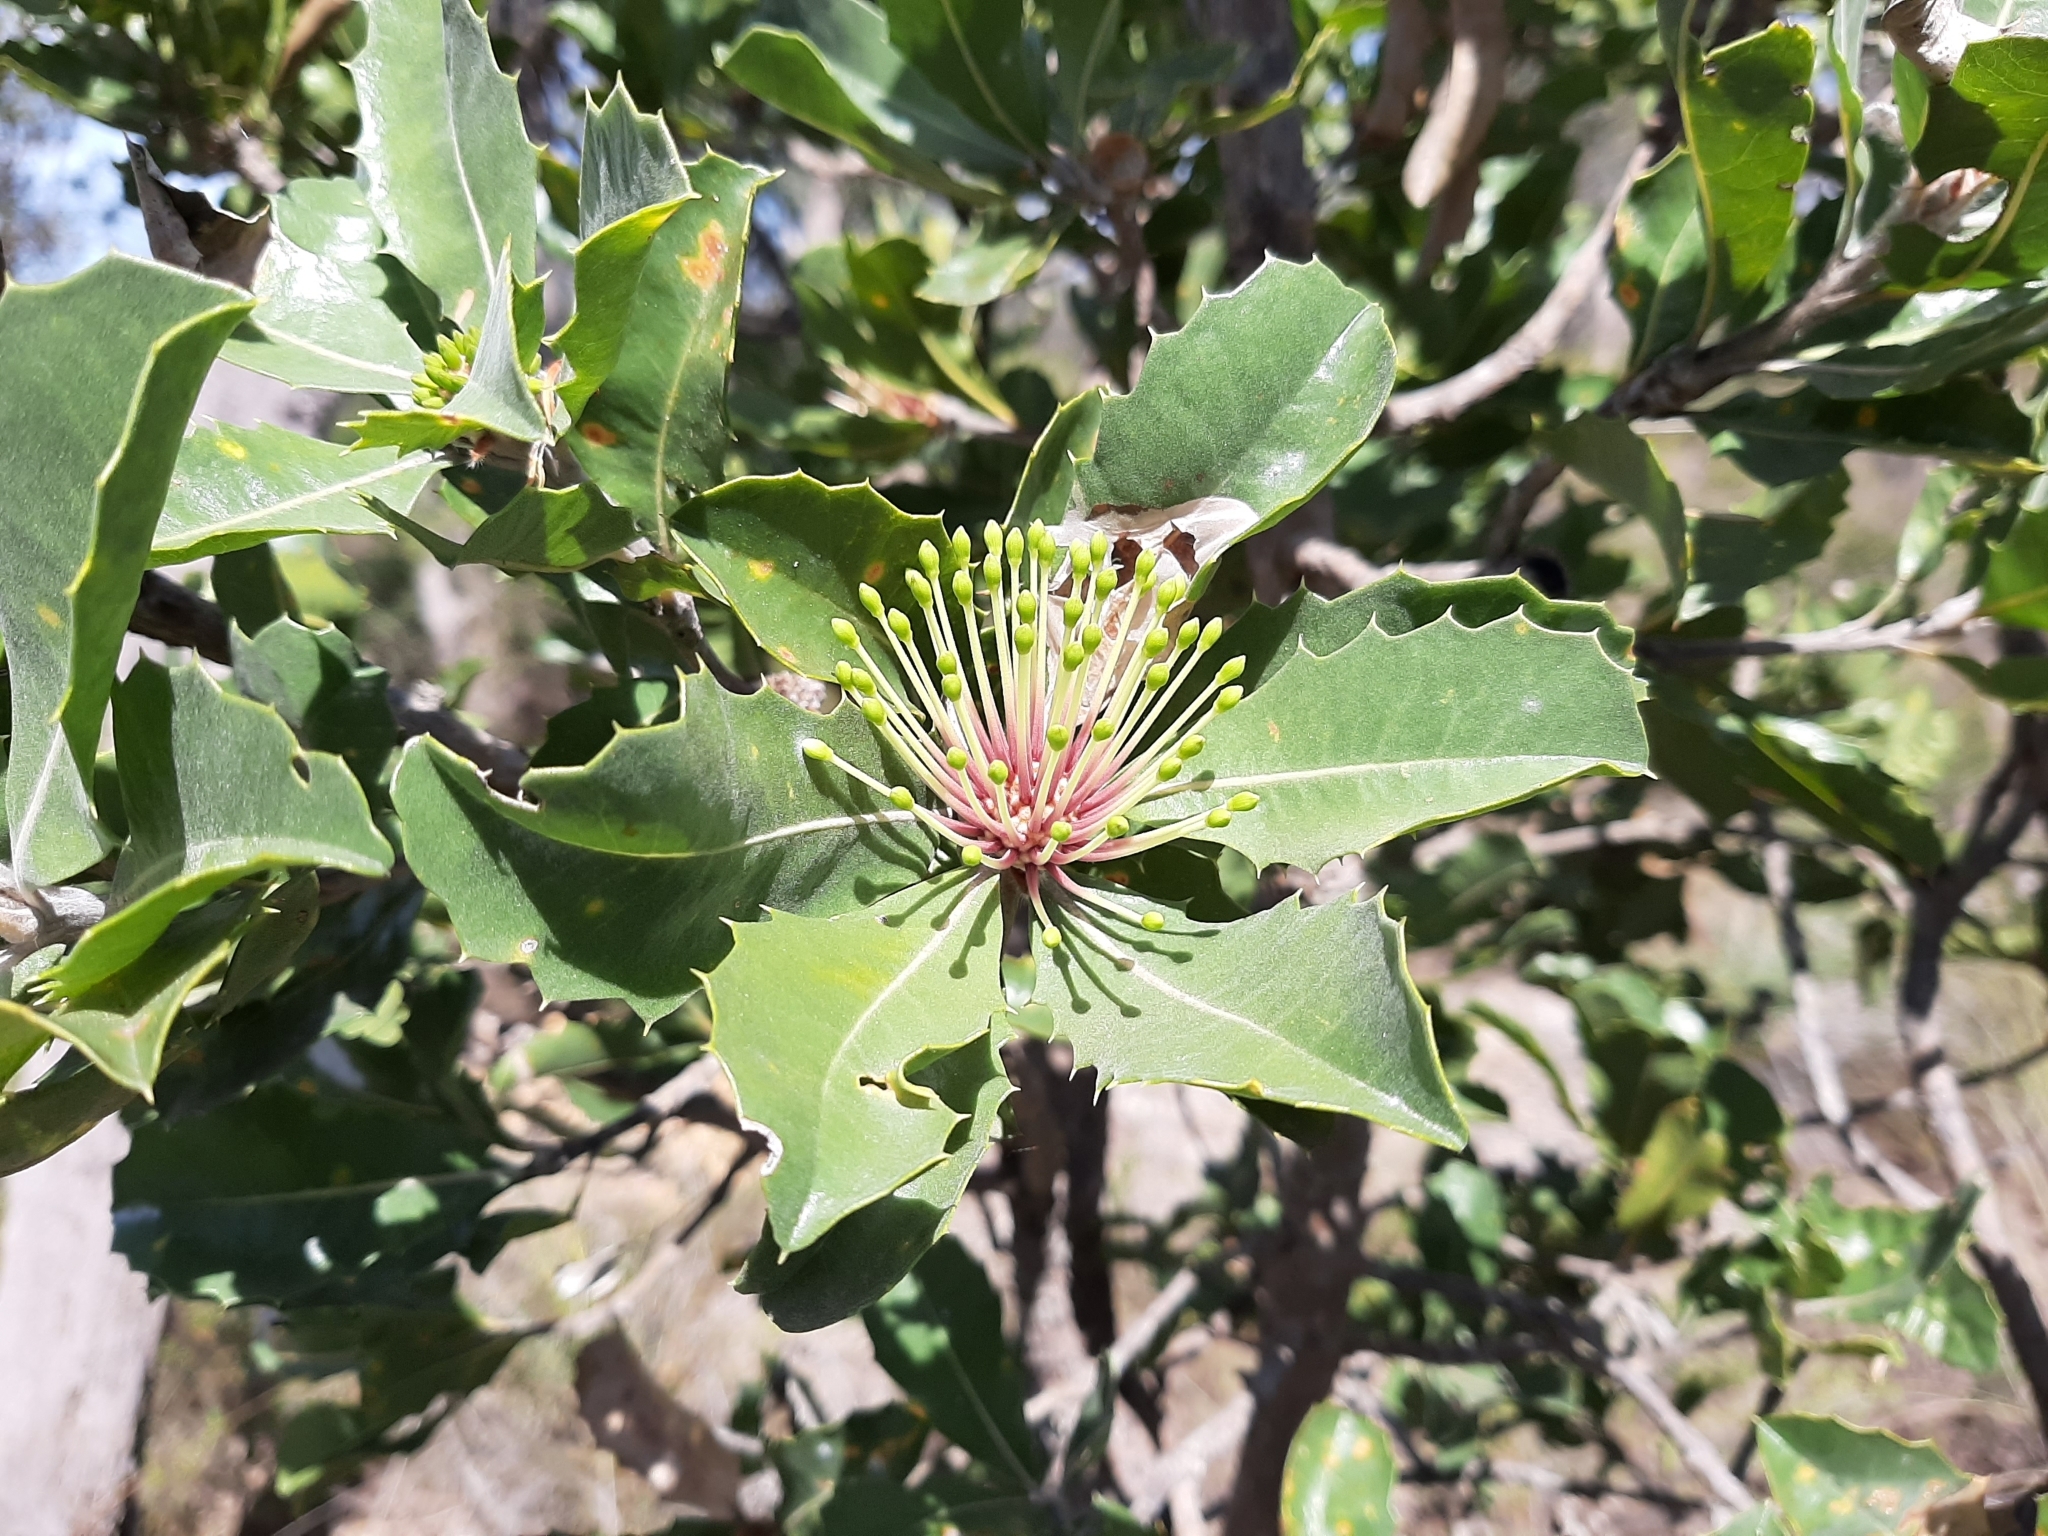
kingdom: Plantae
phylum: Tracheophyta
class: Magnoliopsida
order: Proteales
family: Proteaceae
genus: Banksia
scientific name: Banksia ilicifolia
